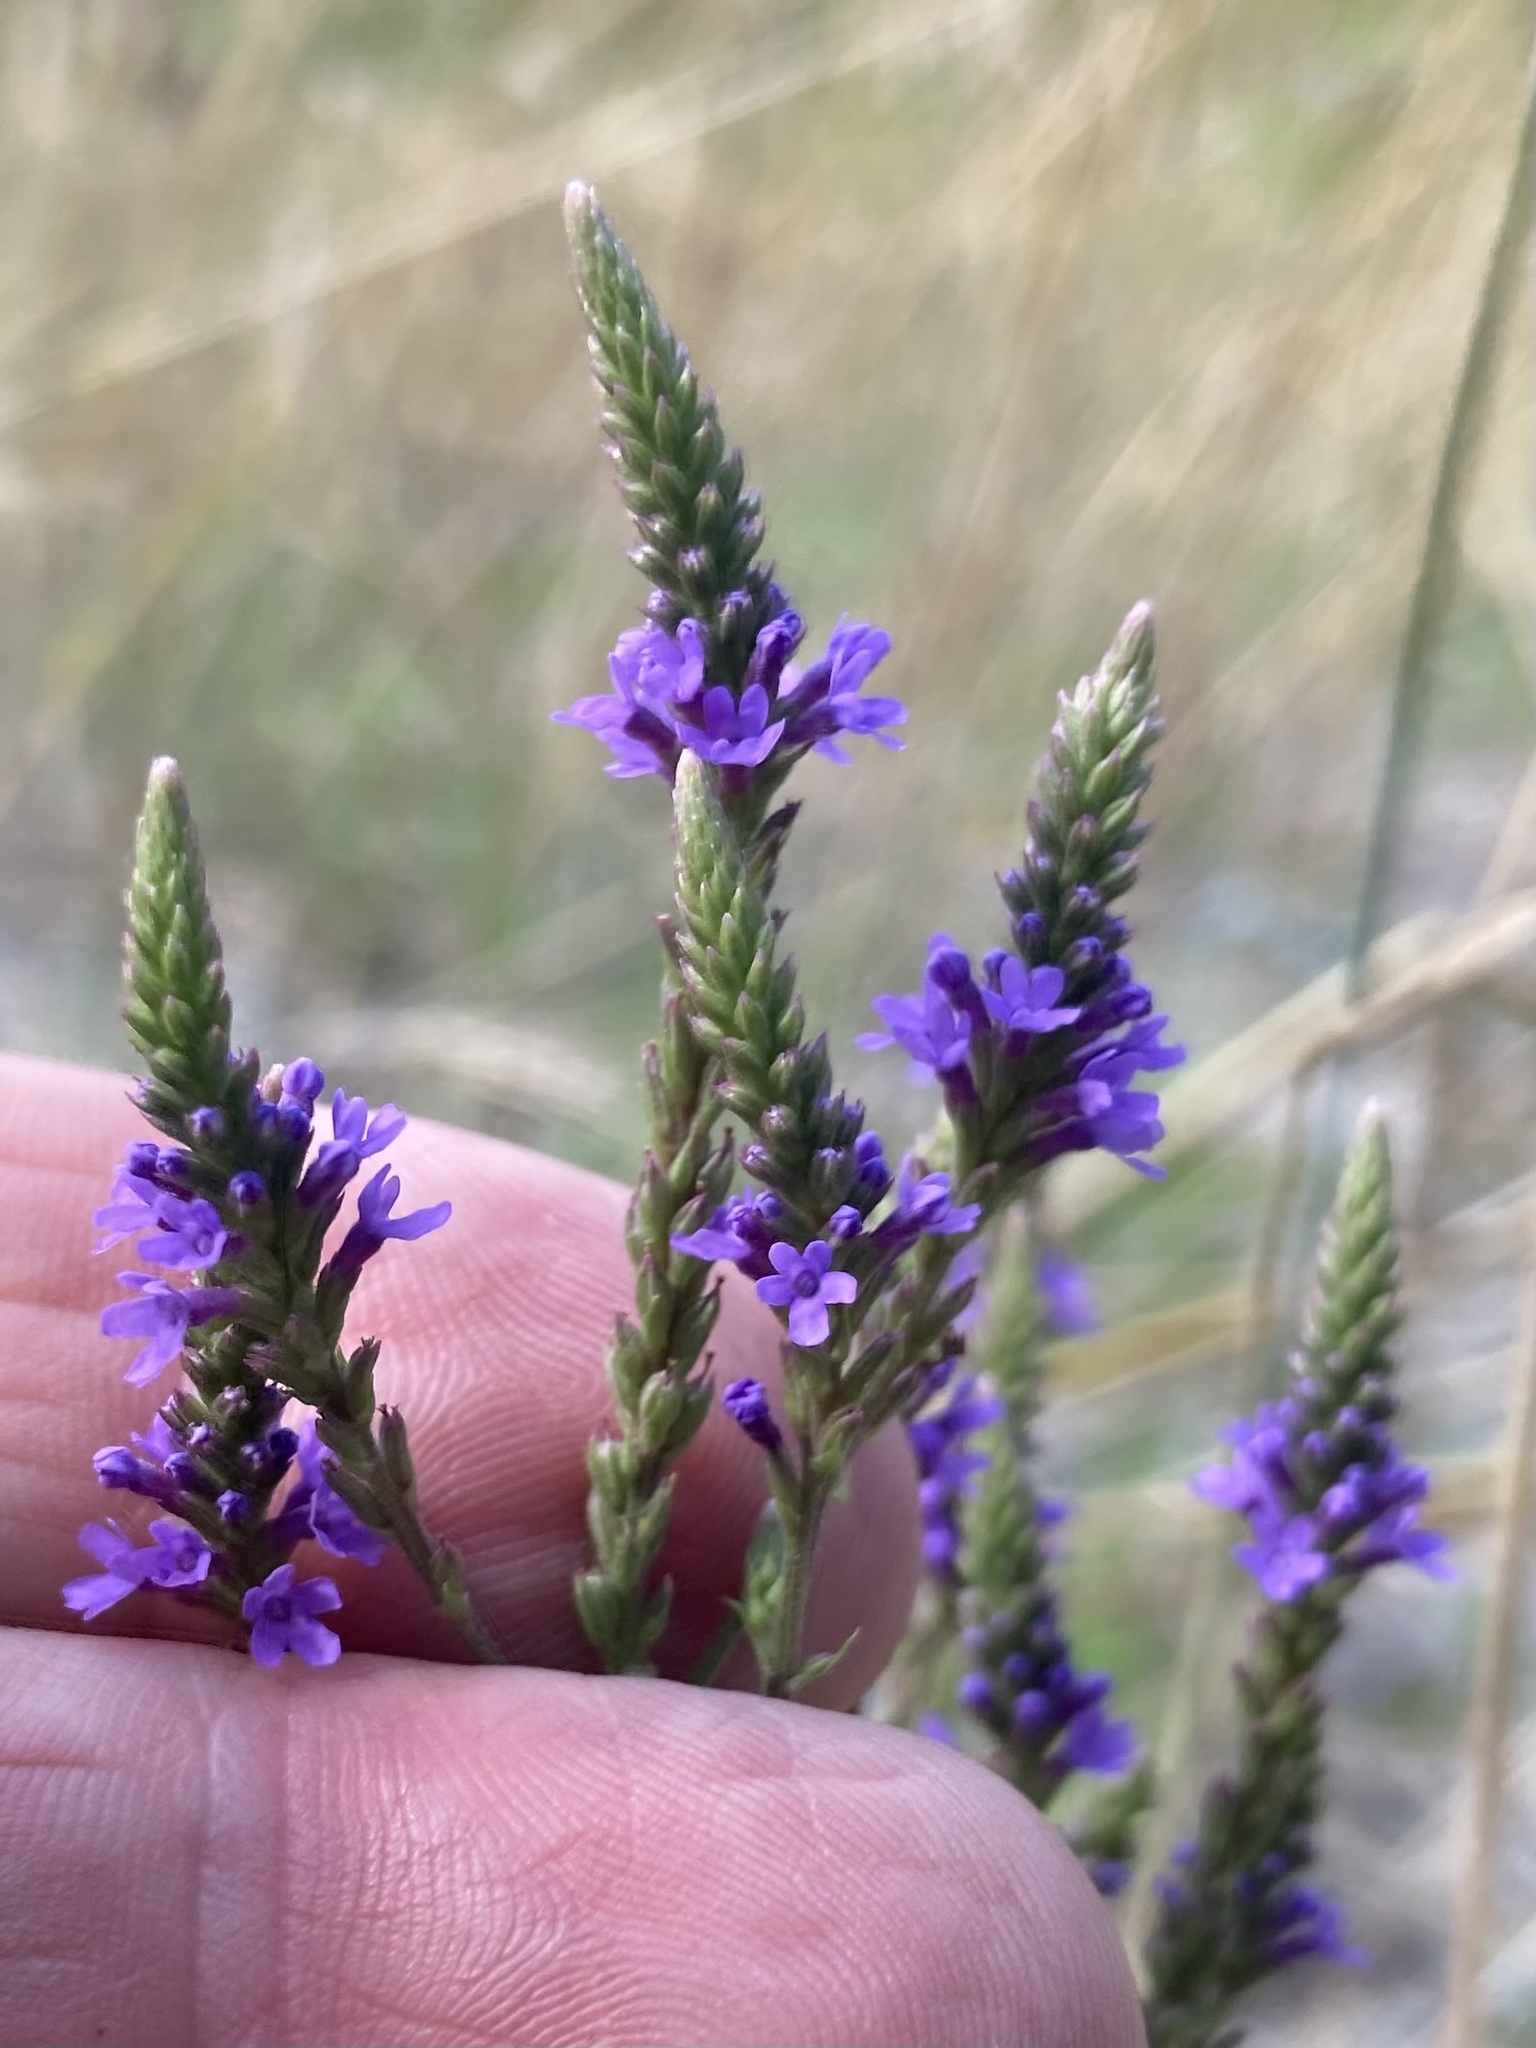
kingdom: Plantae
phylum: Tracheophyta
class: Magnoliopsida
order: Lamiales
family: Verbenaceae
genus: Verbena
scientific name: Verbena hastata
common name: American blue vervain
